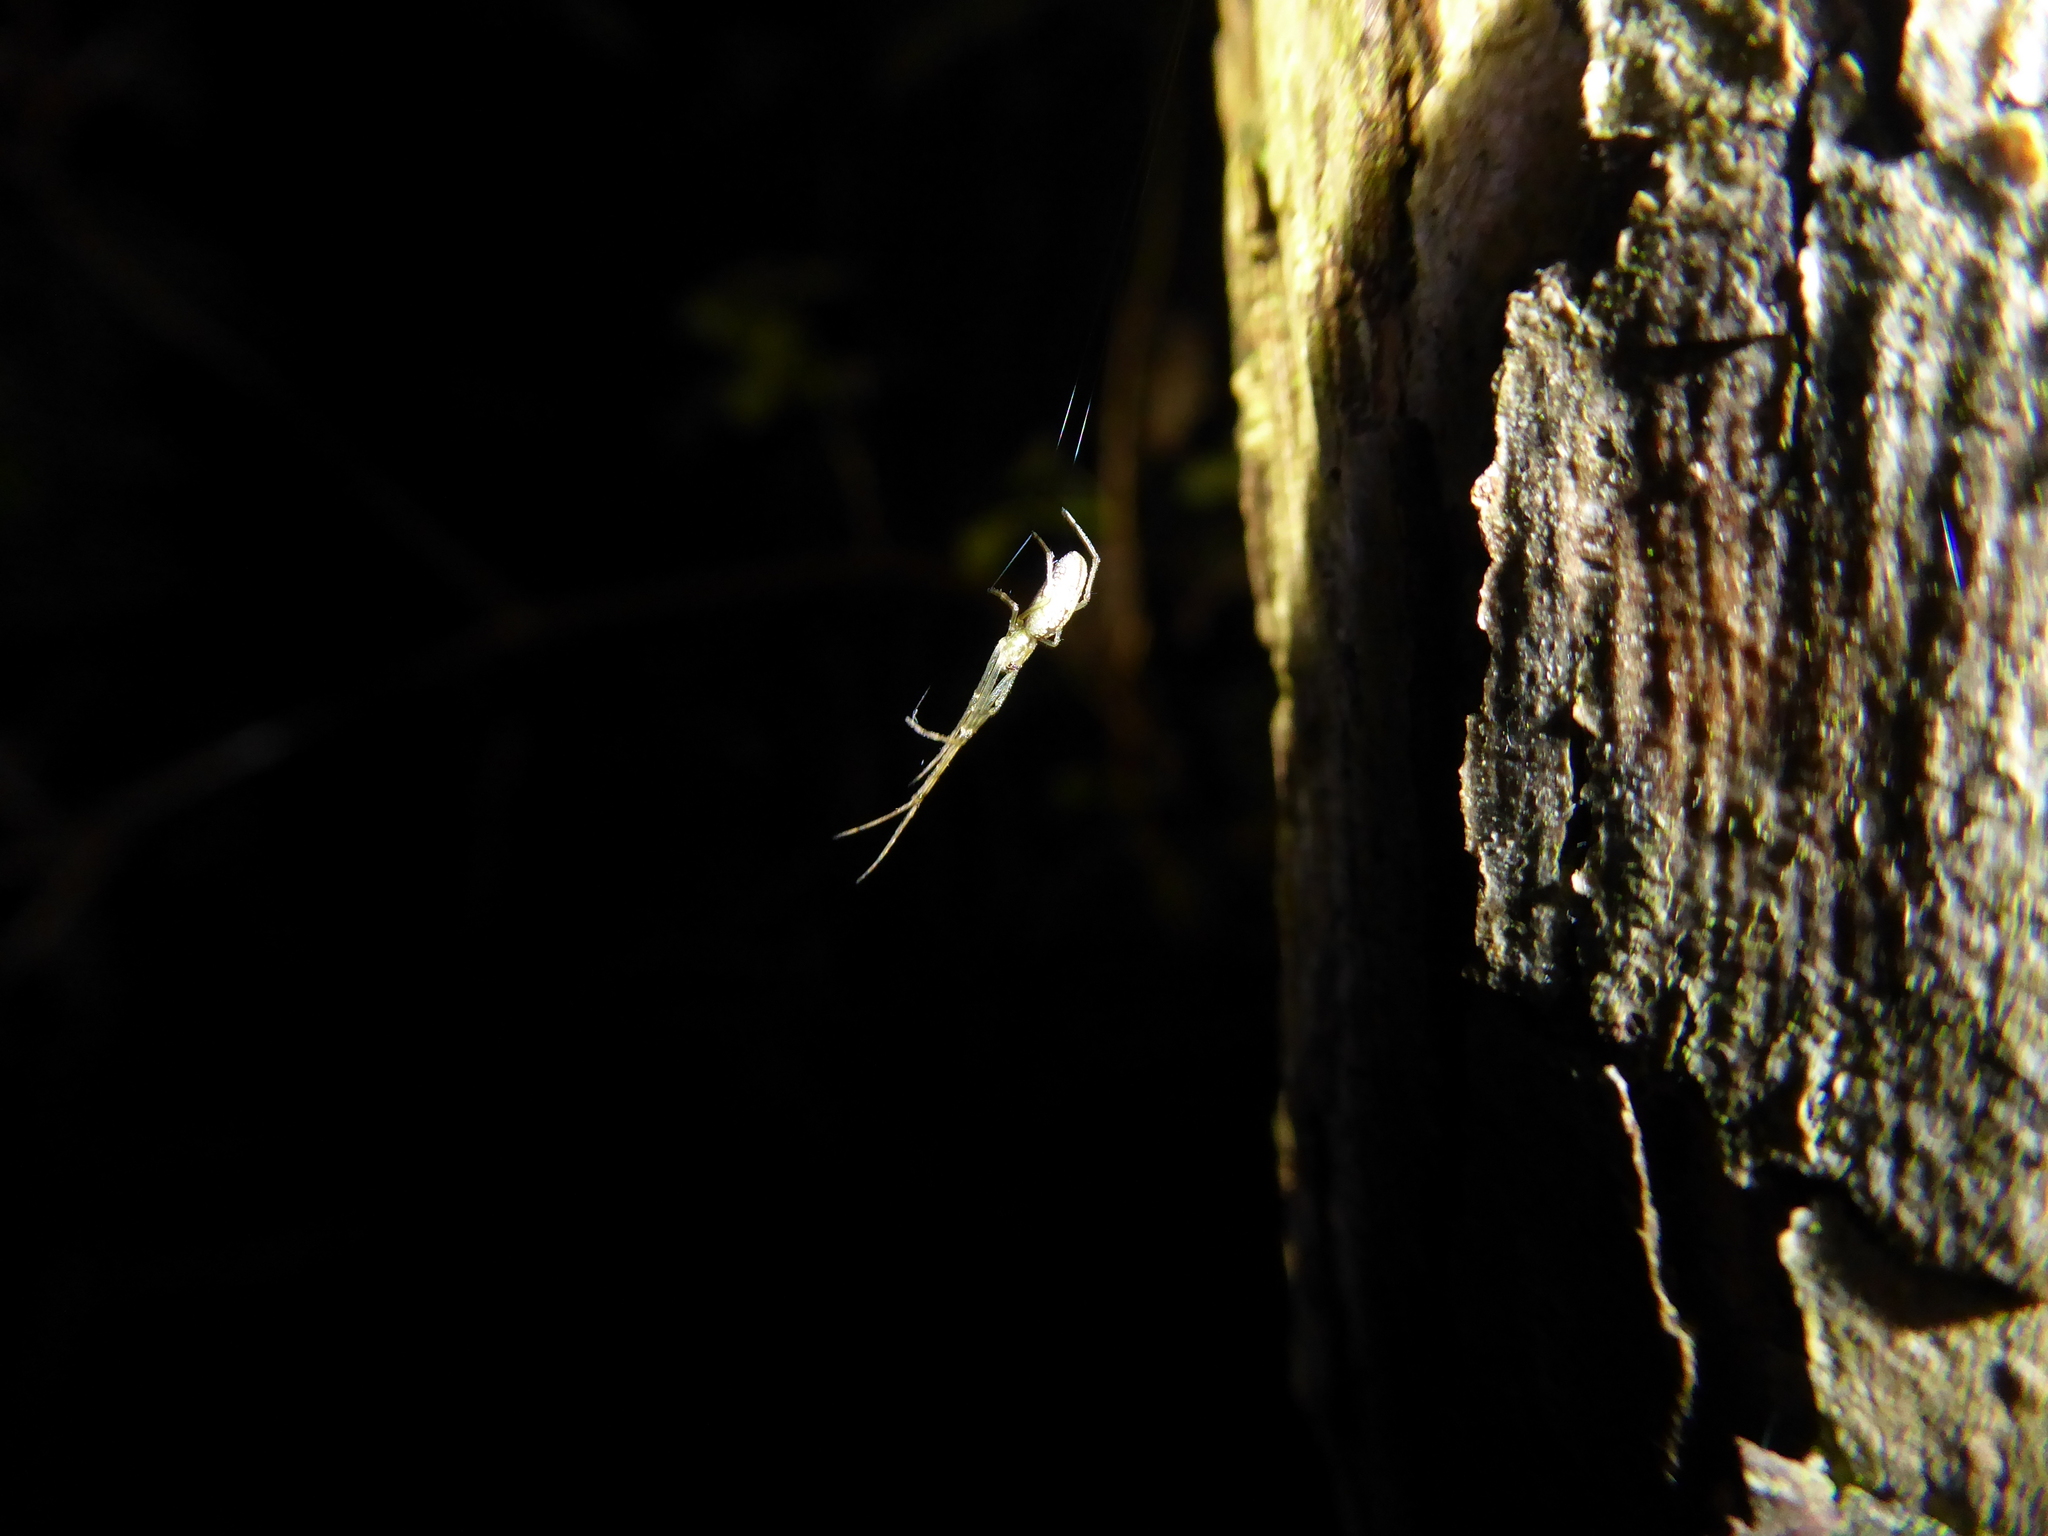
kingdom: Animalia
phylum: Arthropoda
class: Arachnida
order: Araneae
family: Tetragnathidae
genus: Tetragnatha
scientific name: Tetragnatha
